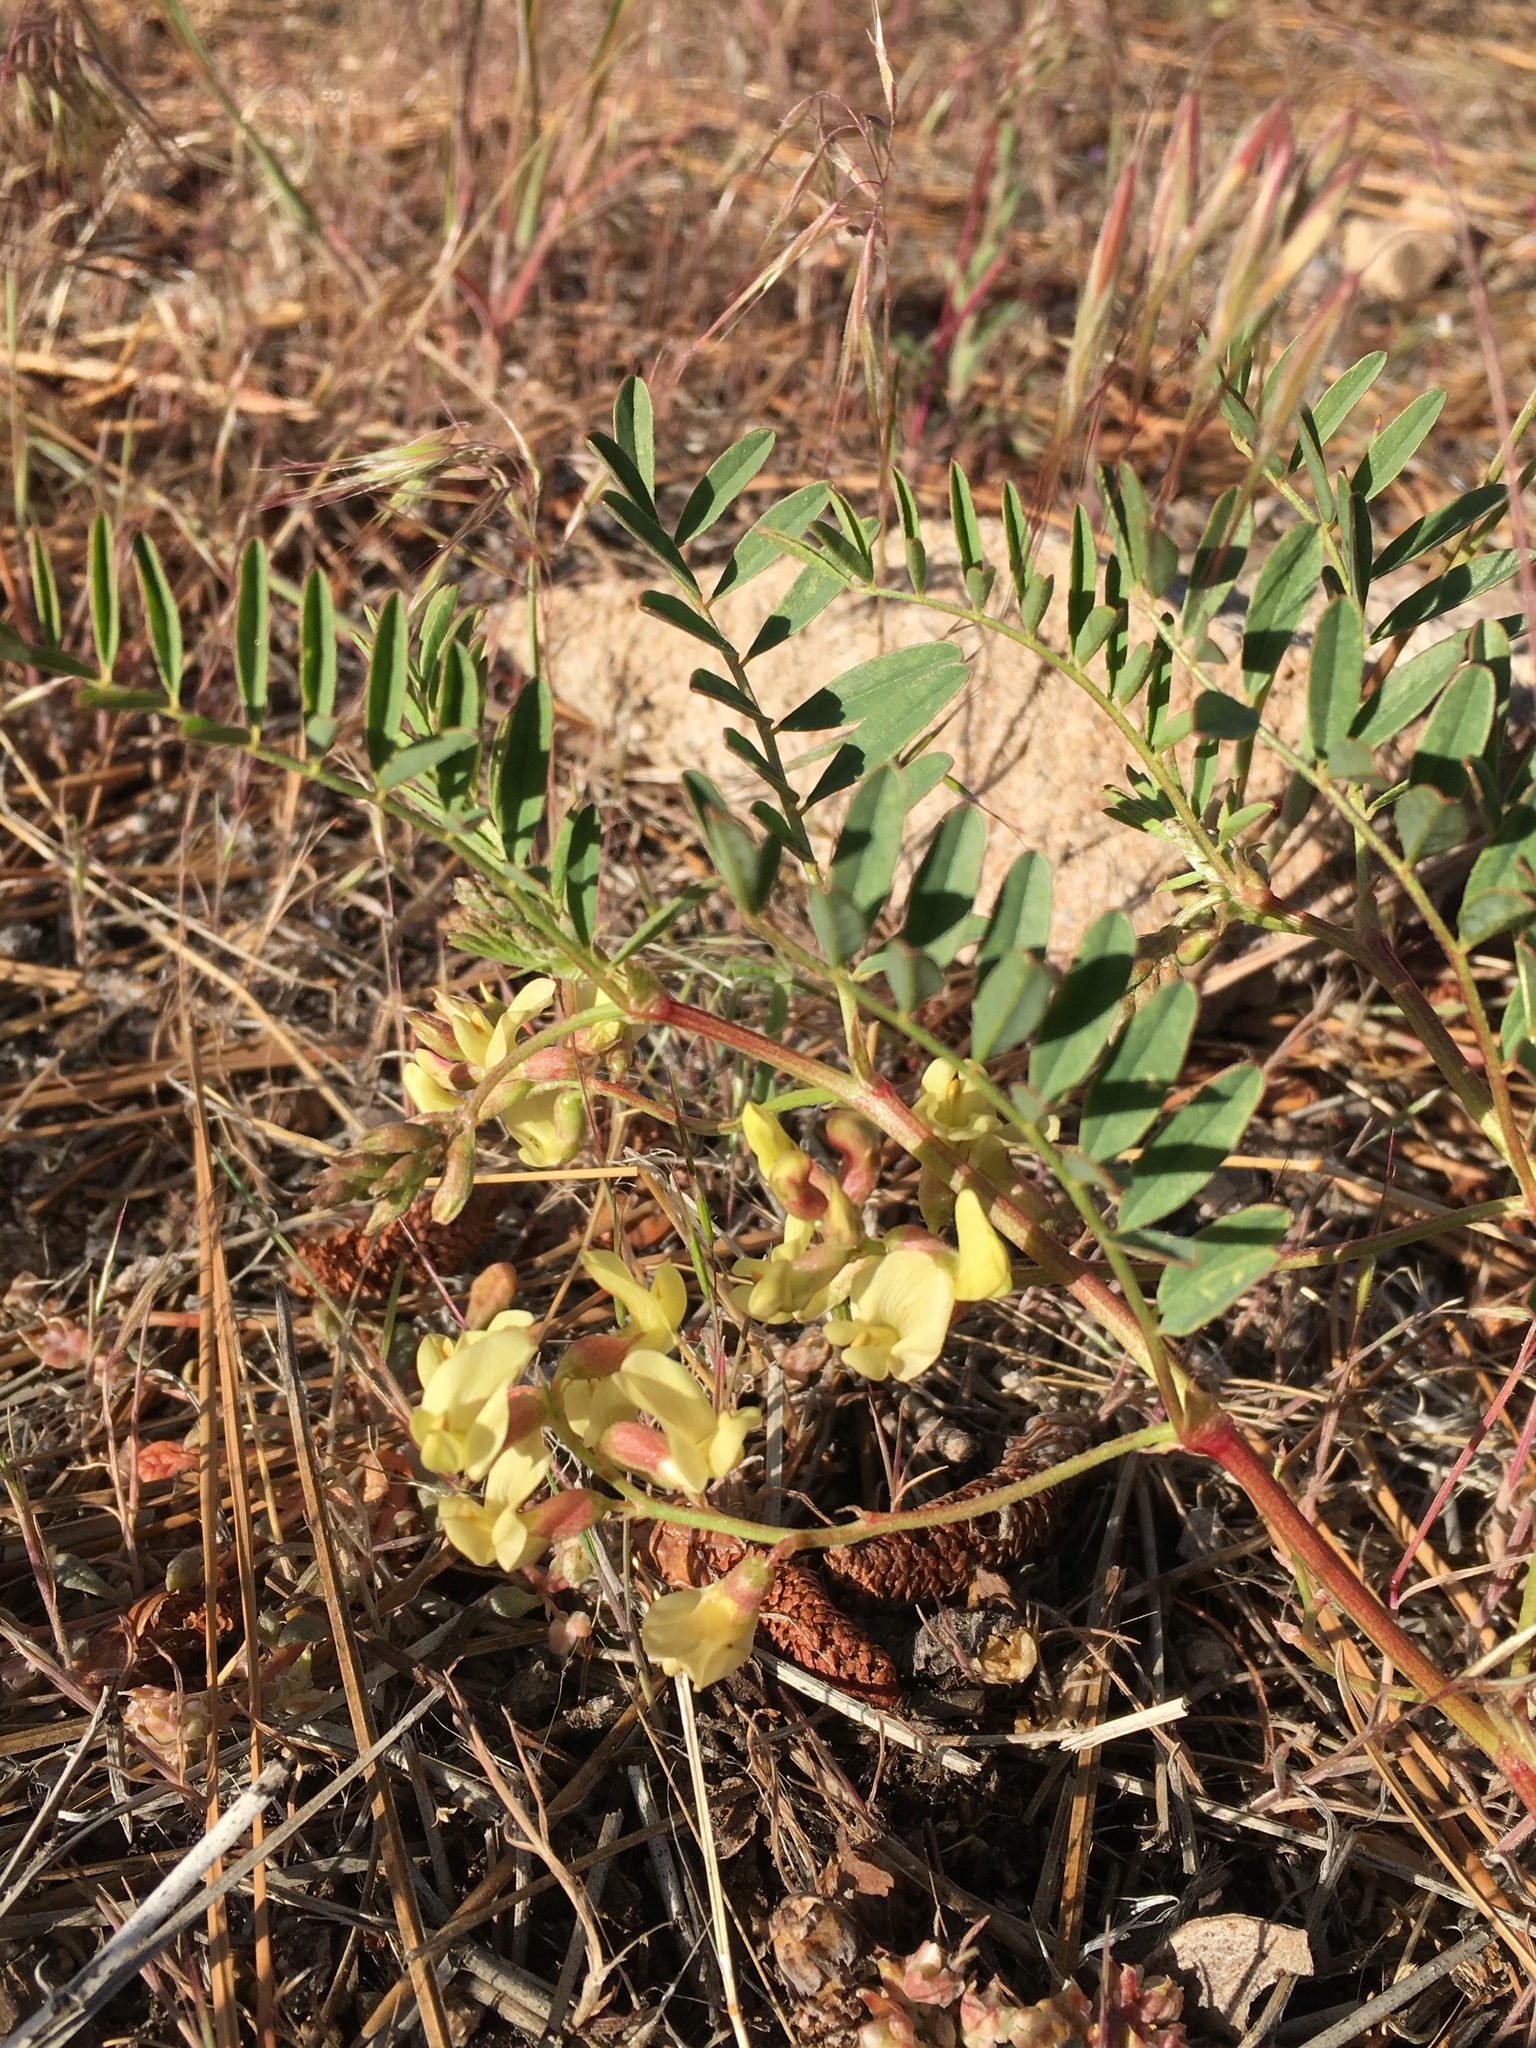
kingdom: Plantae
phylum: Tracheophyta
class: Magnoliopsida
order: Fabales
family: Fabaceae
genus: Astragalus
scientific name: Astragalus douglasii
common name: Jacumba milkvetch
